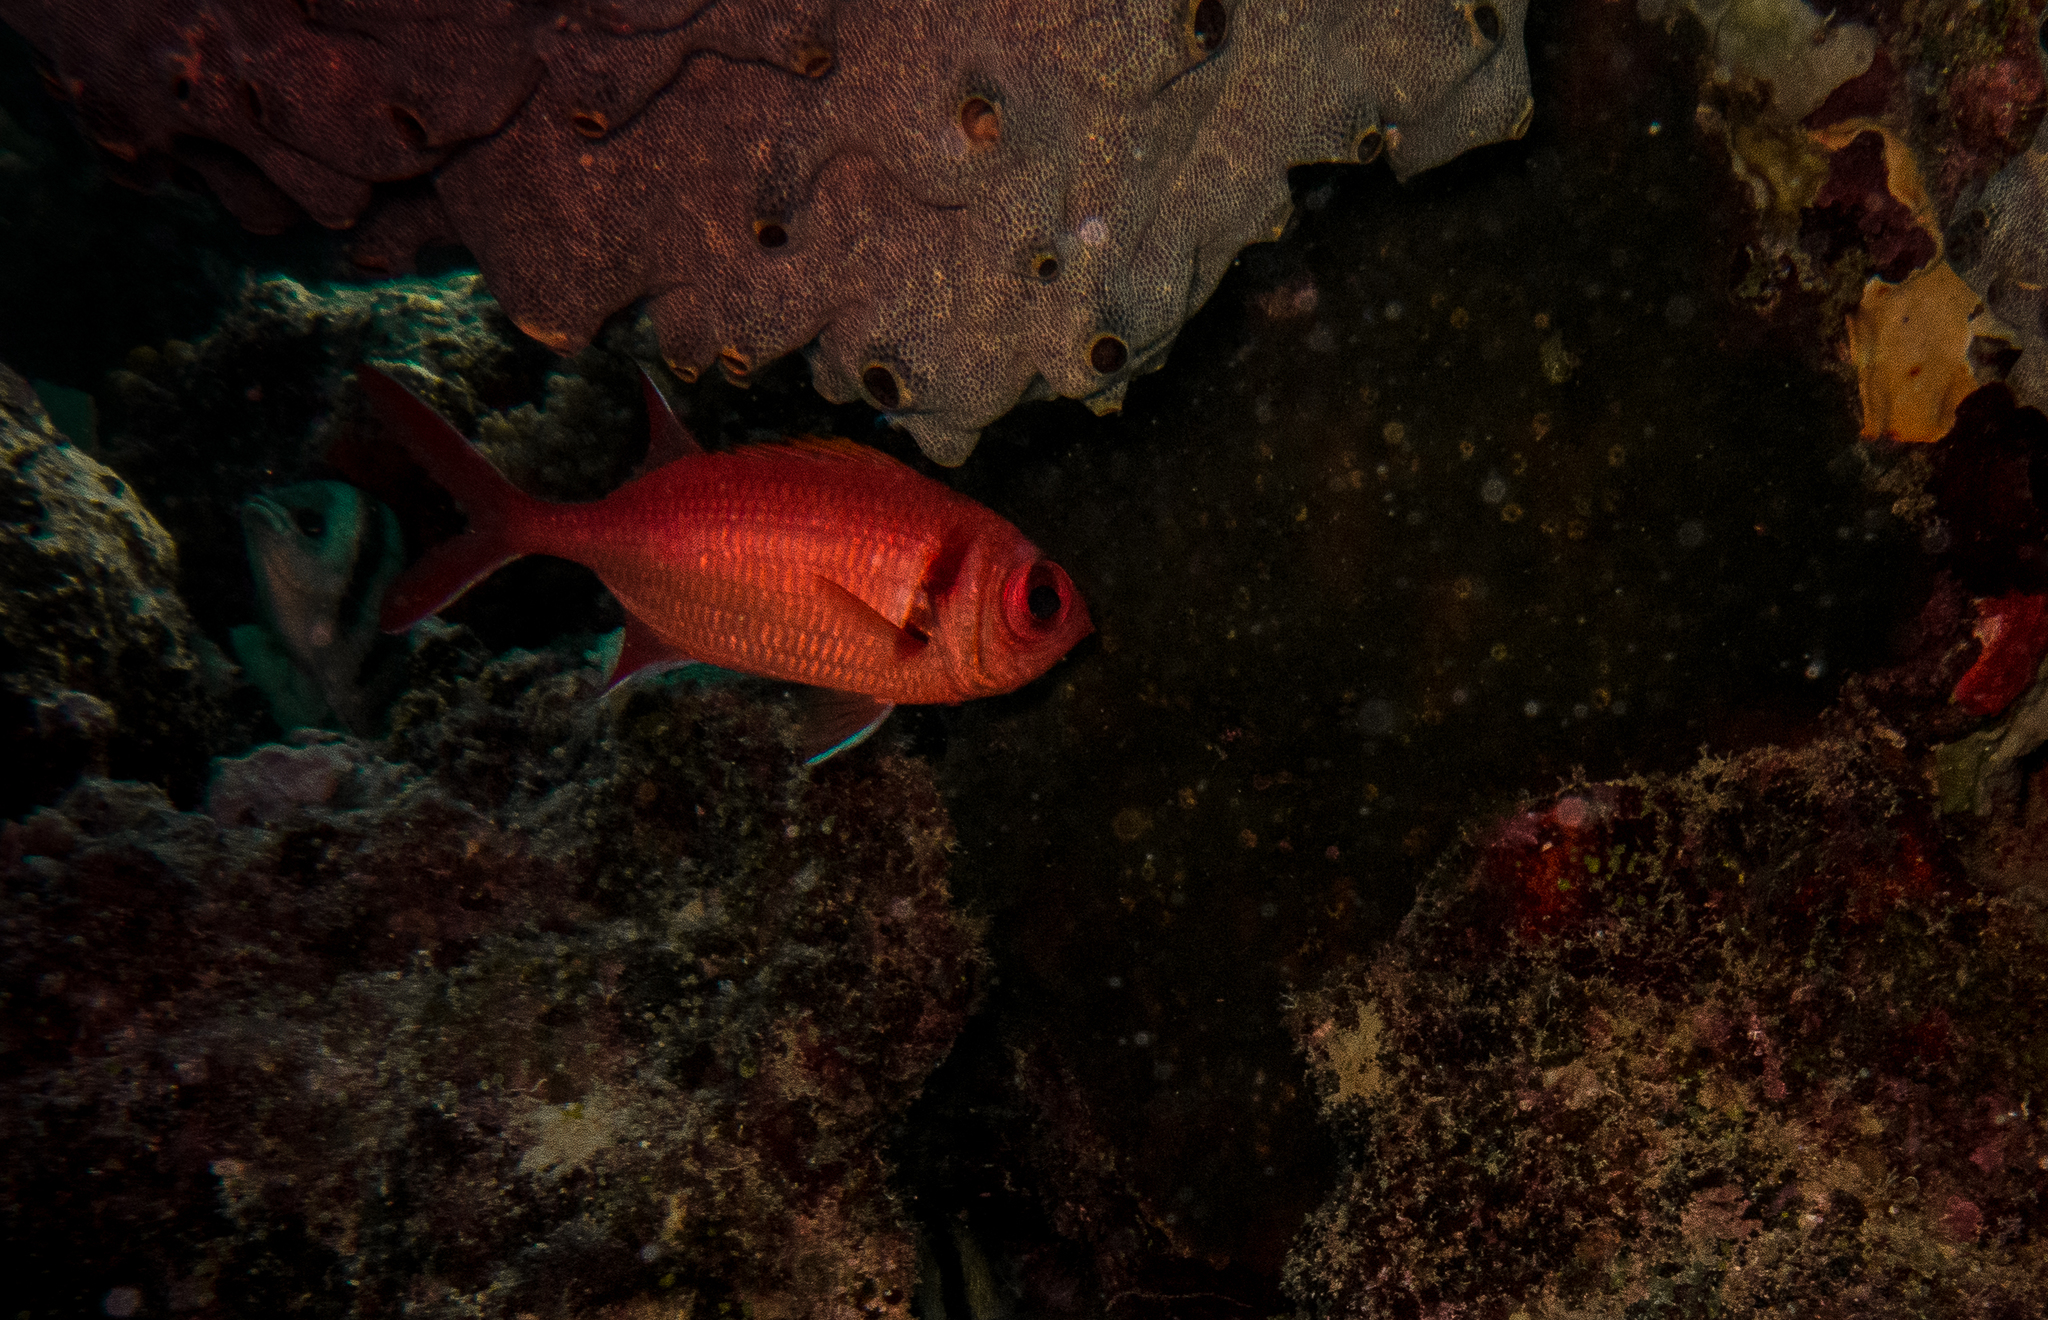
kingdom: Animalia
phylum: Chordata
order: Beryciformes
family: Holocentridae
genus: Myripristis
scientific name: Myripristis kuntee
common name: Epaulette soldierfish
